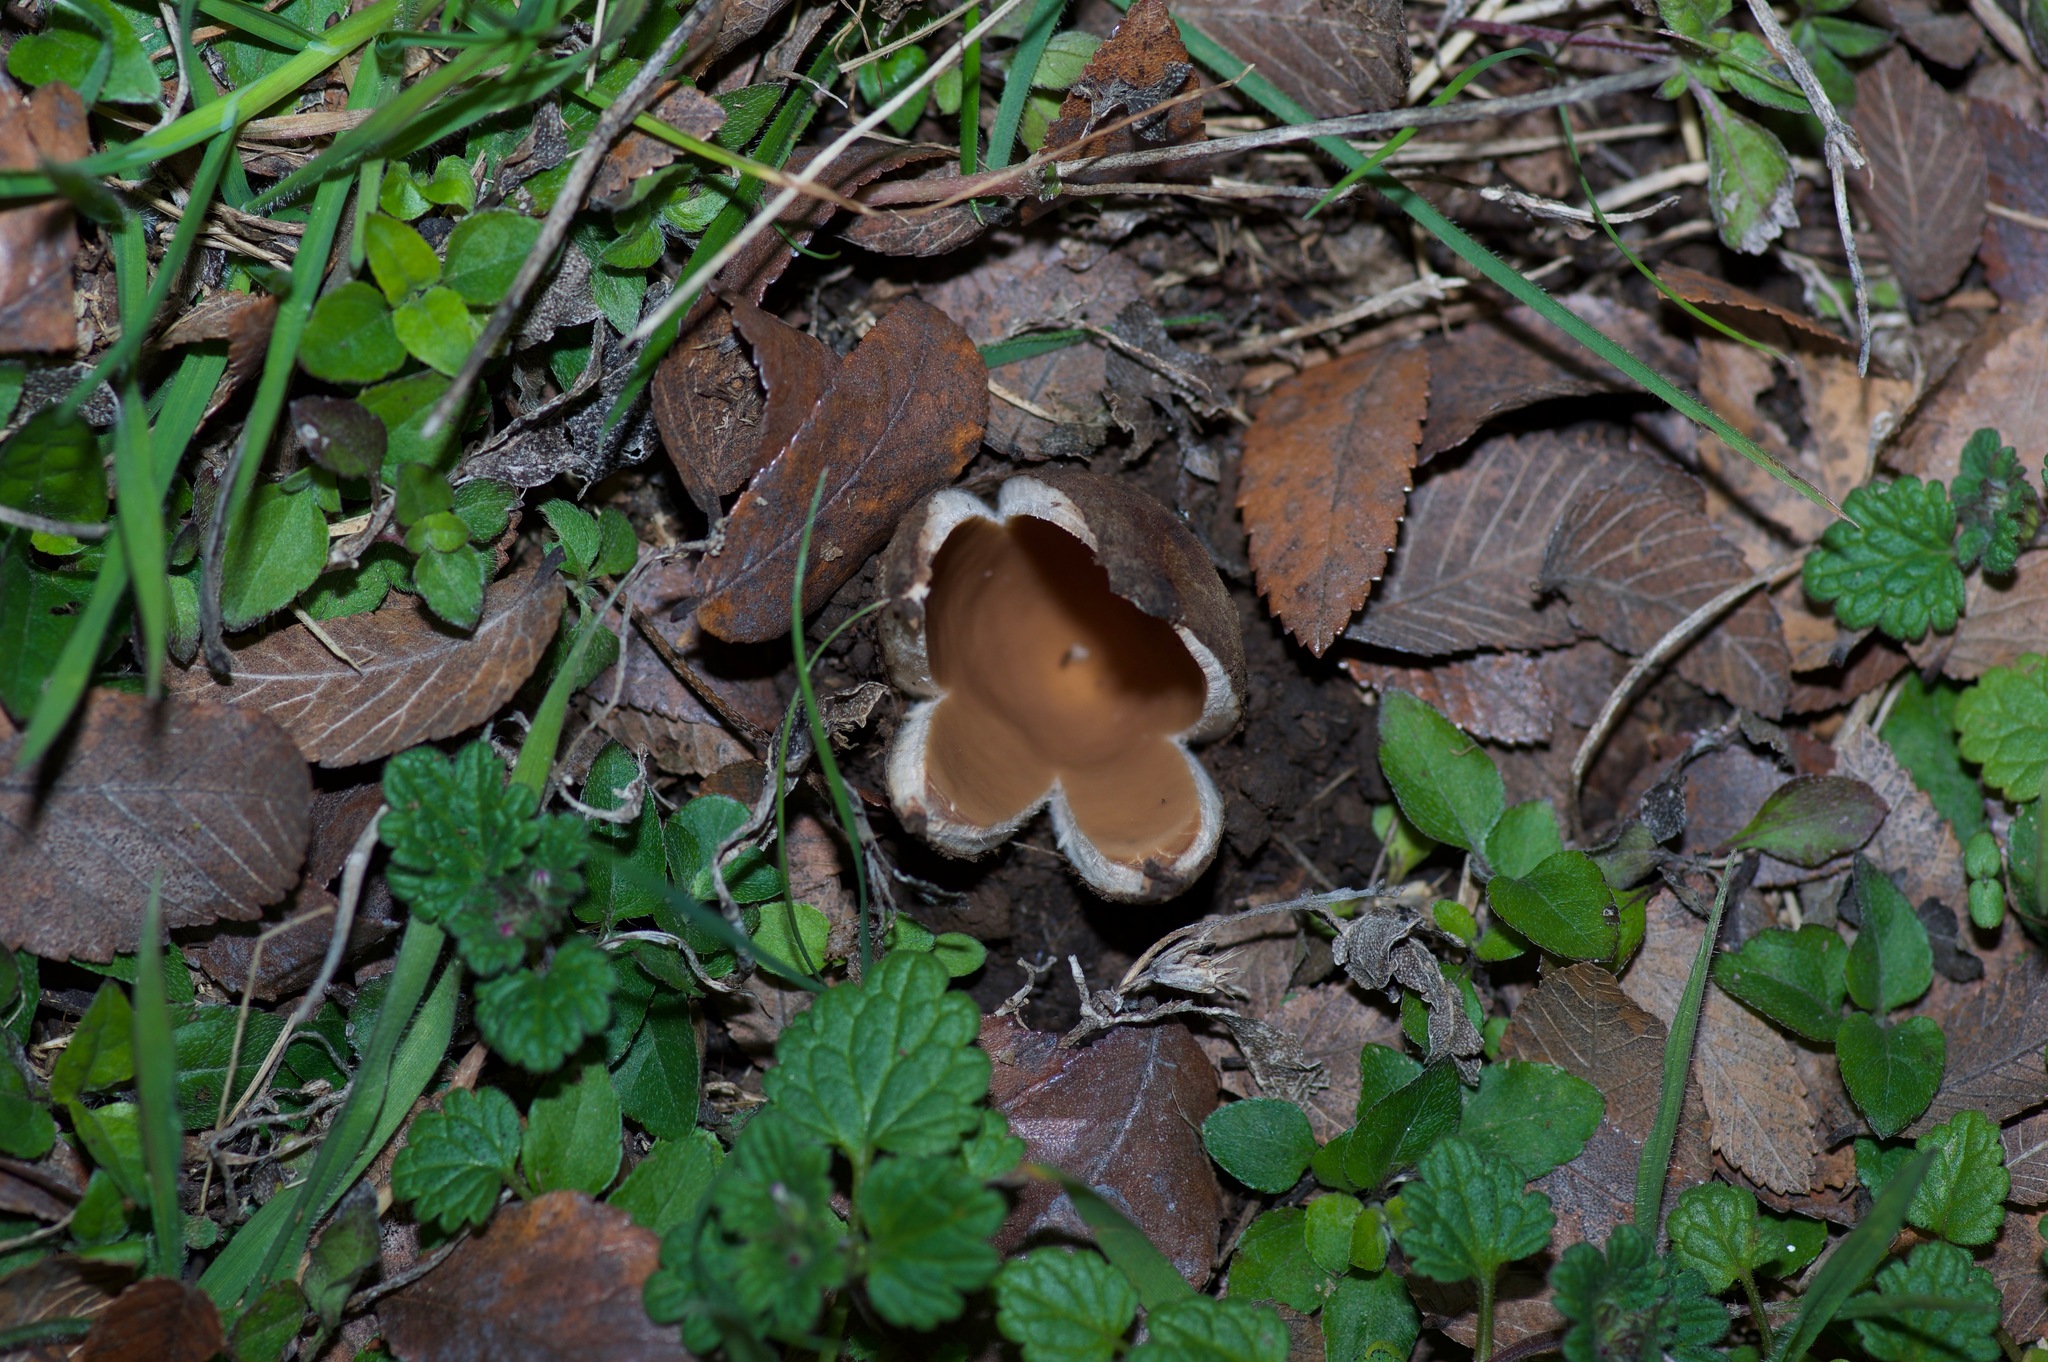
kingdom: Fungi
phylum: Ascomycota
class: Pezizomycetes
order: Pezizales
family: Chorioactidaceae
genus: Chorioactis
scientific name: Chorioactis geaster
